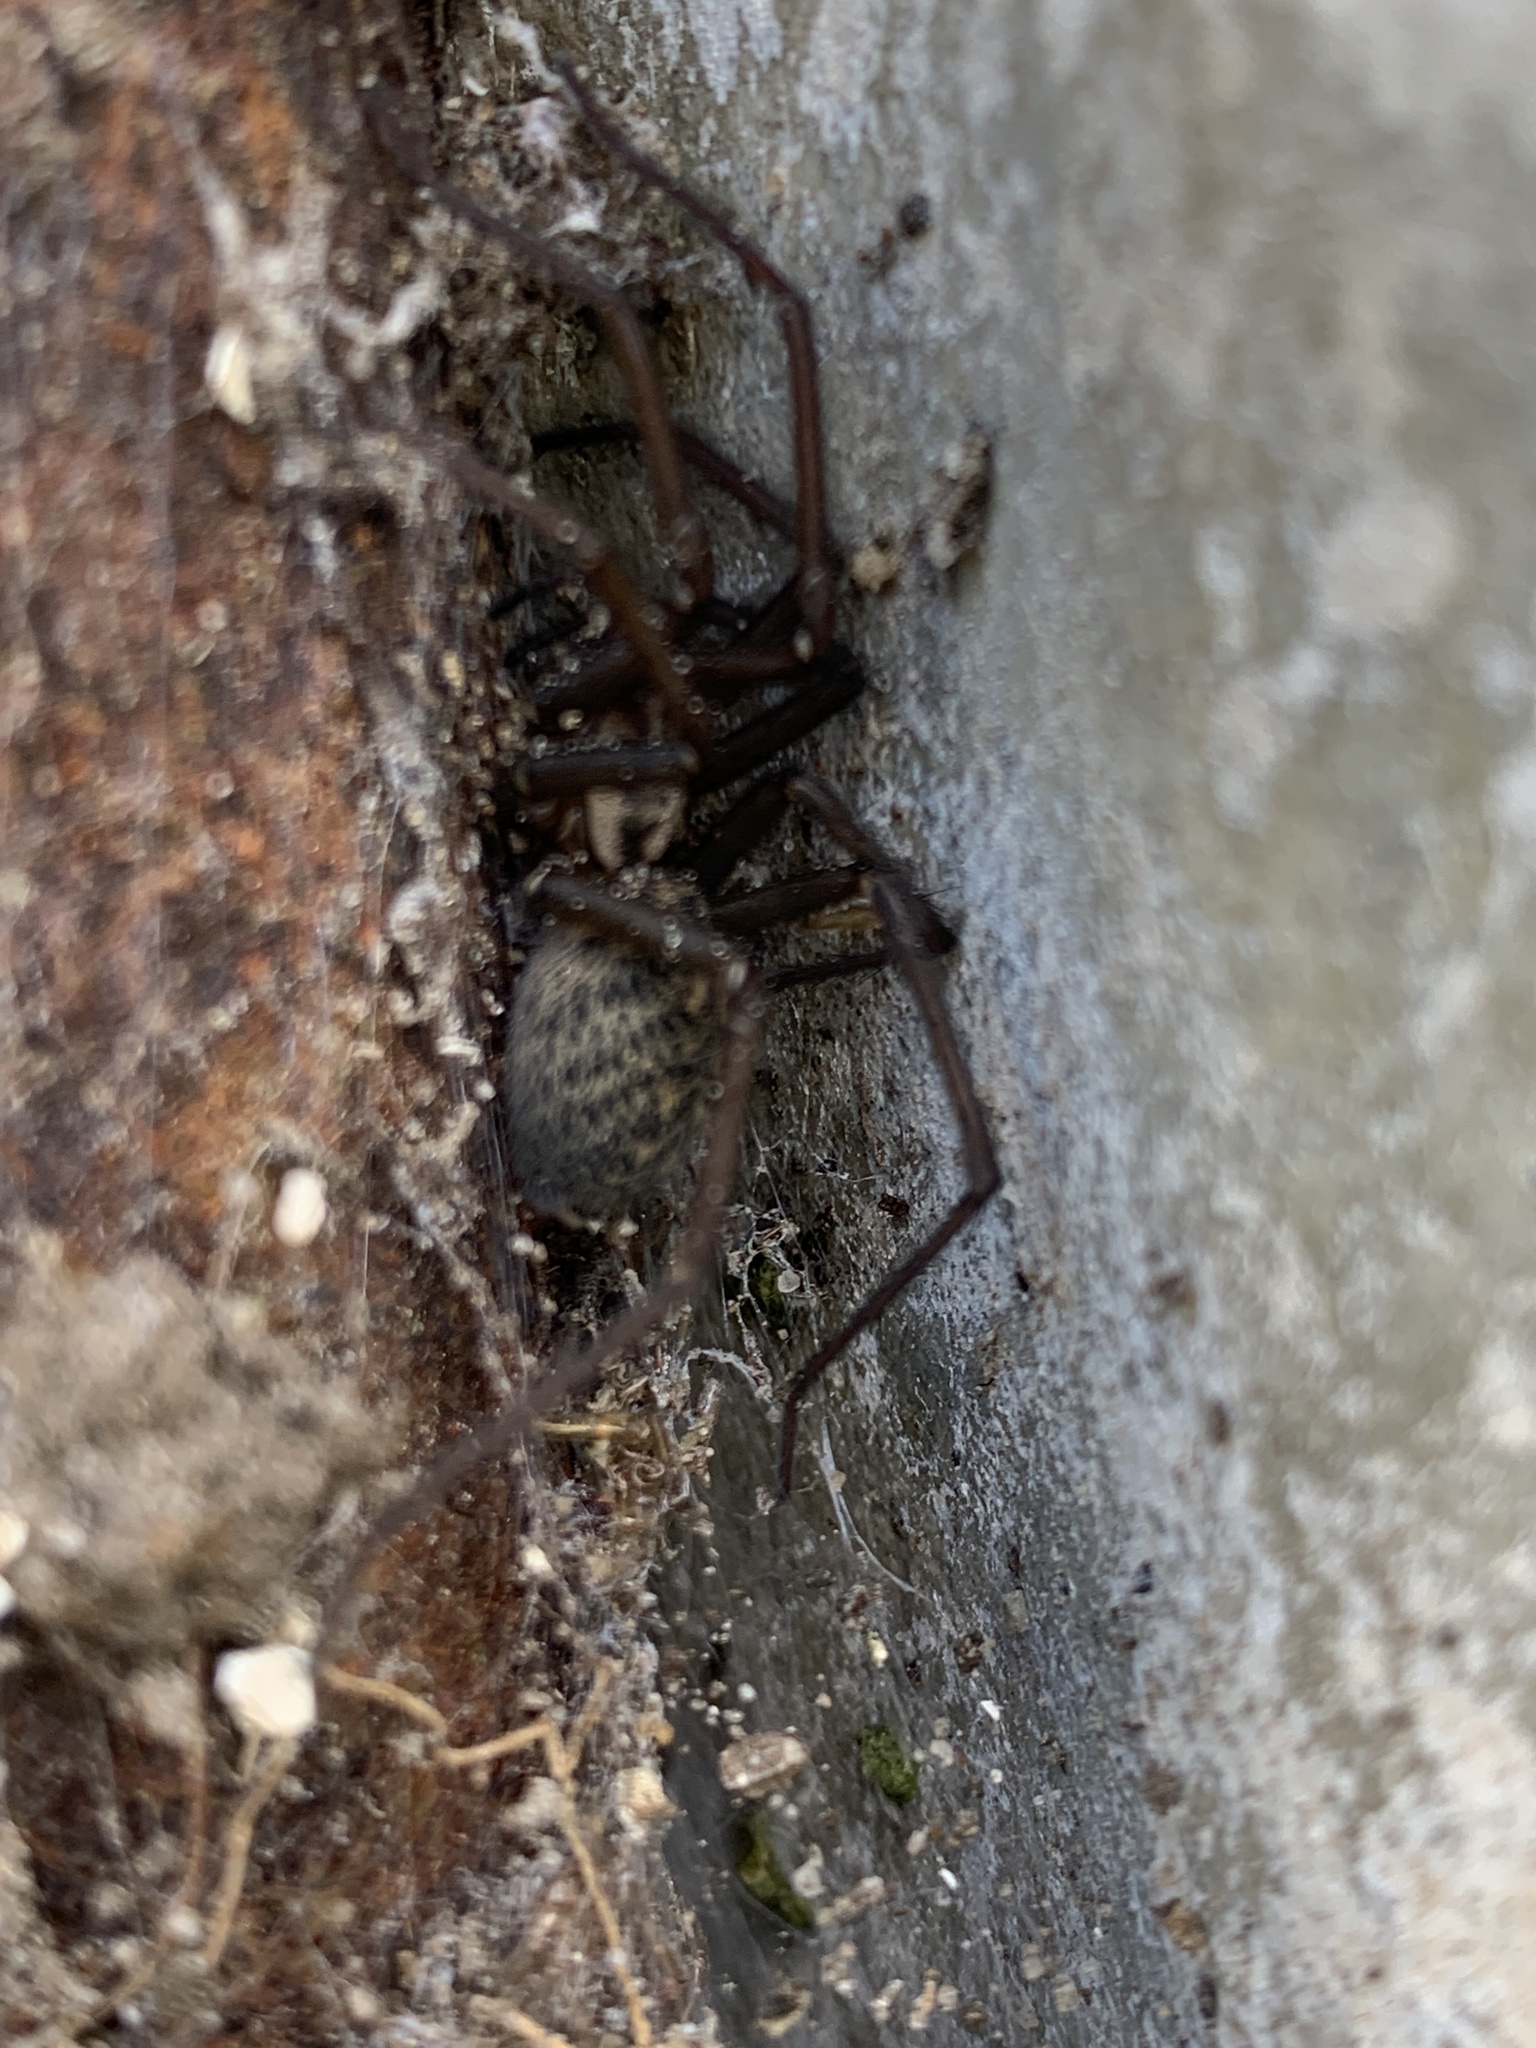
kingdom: Animalia
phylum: Arthropoda
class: Arachnida
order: Araneae
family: Agelenidae
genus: Eratigena
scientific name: Eratigena atrica
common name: Giant house spider
